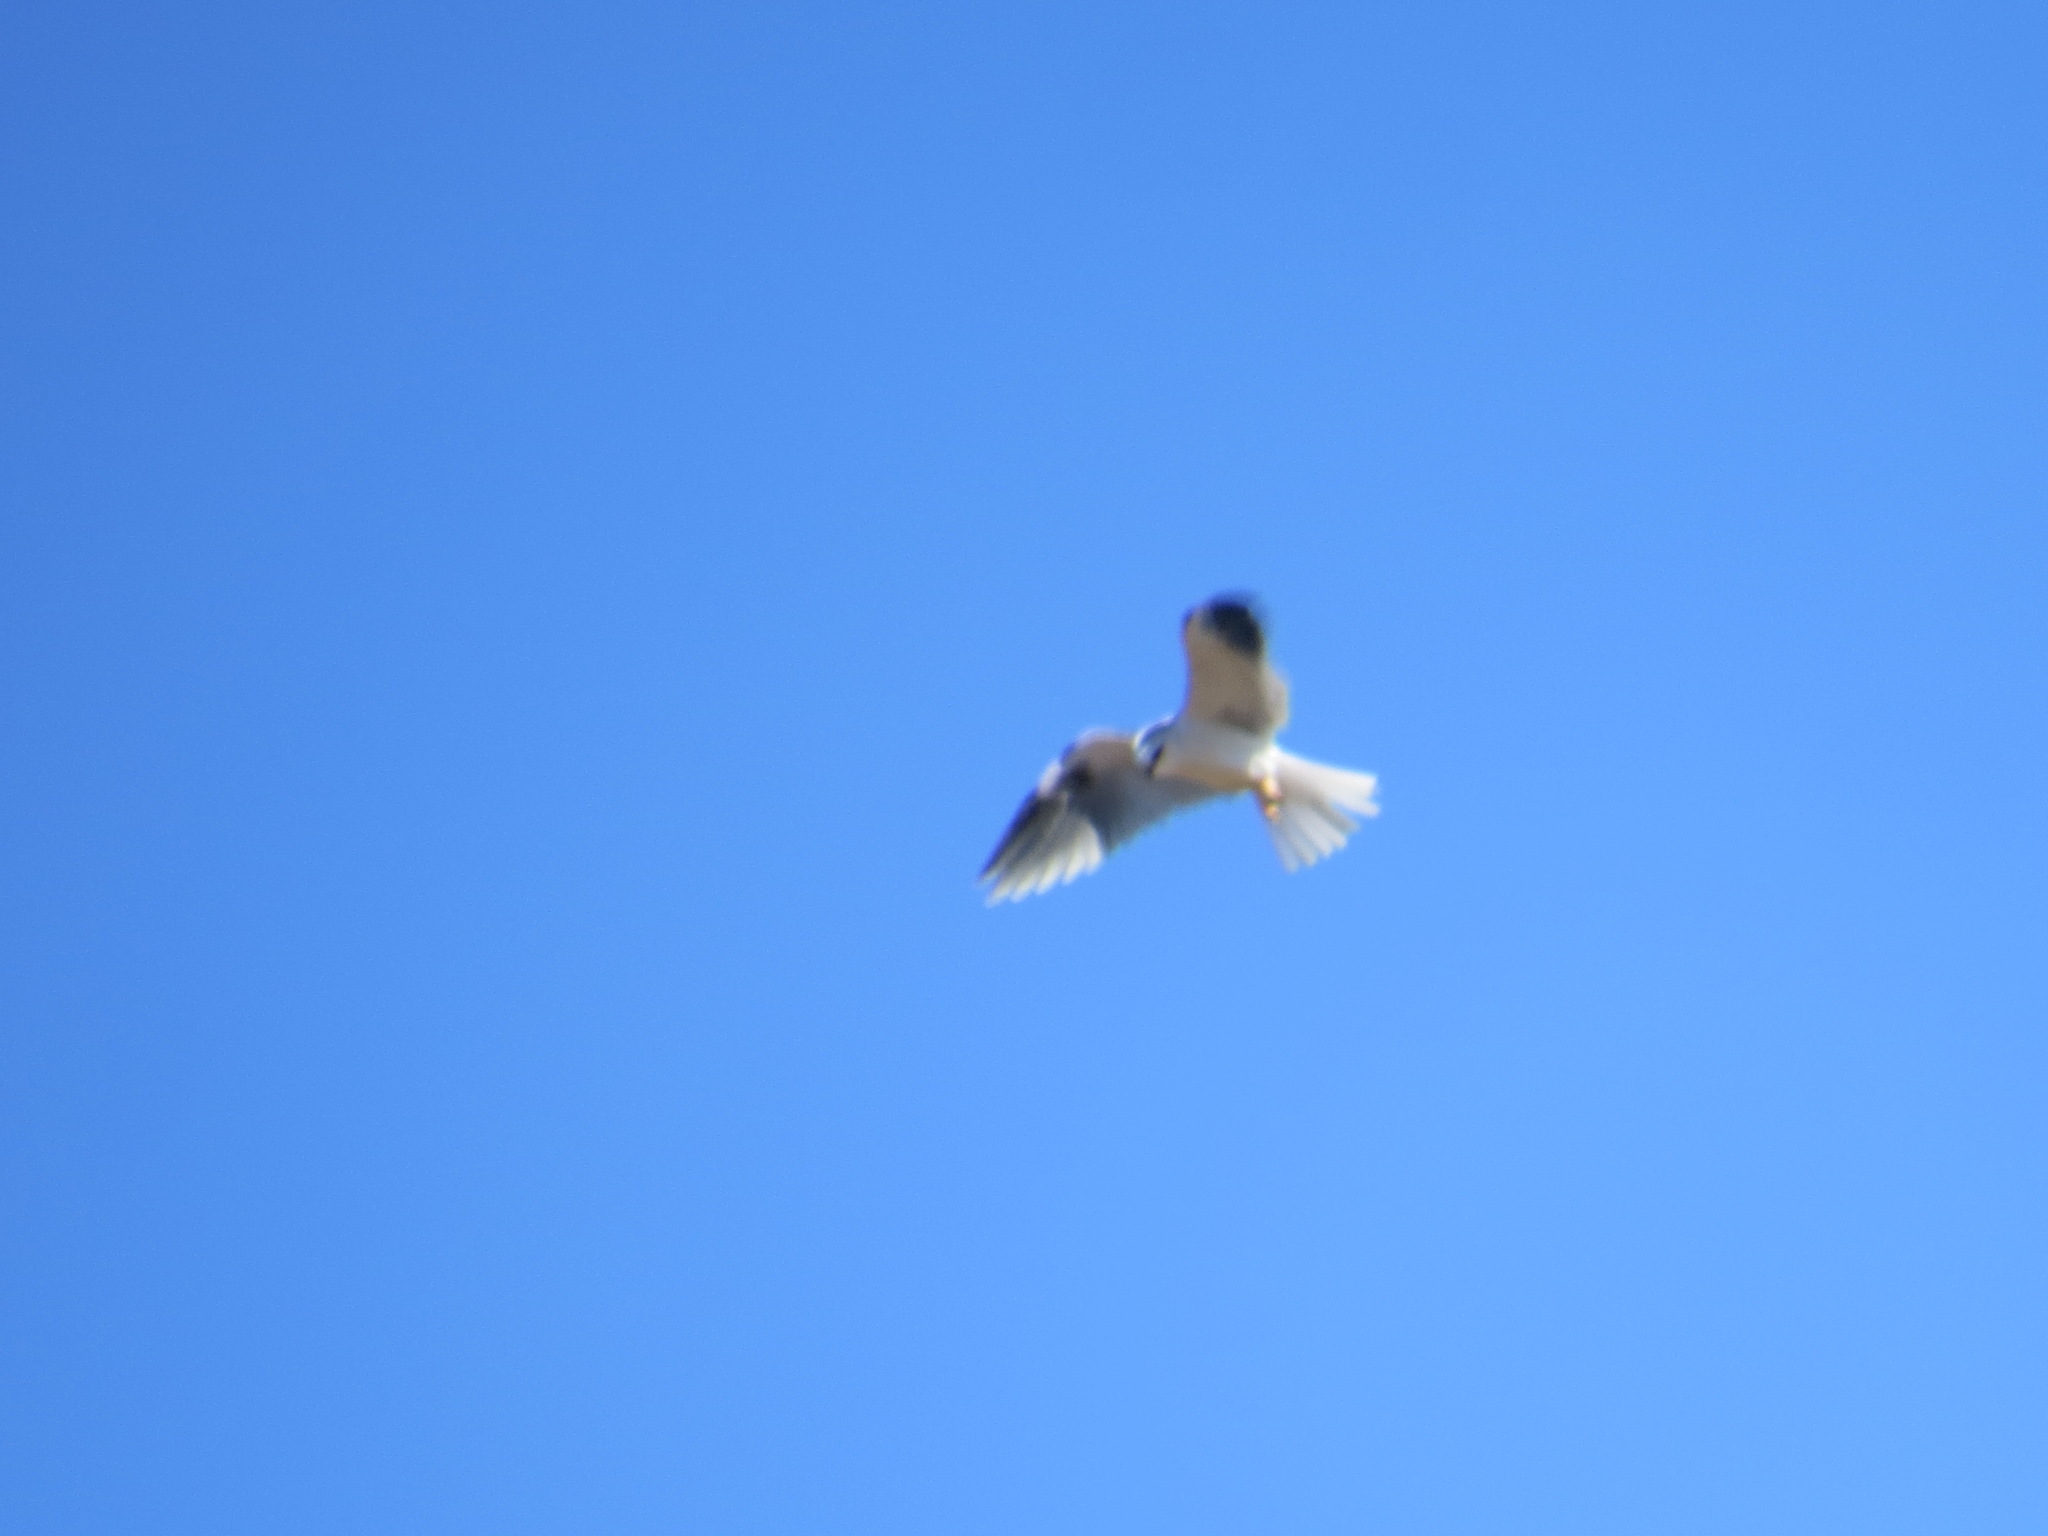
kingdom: Animalia
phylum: Chordata
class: Aves
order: Accipitriformes
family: Accipitridae
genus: Elanus
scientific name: Elanus leucurus
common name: White-tailed kite
